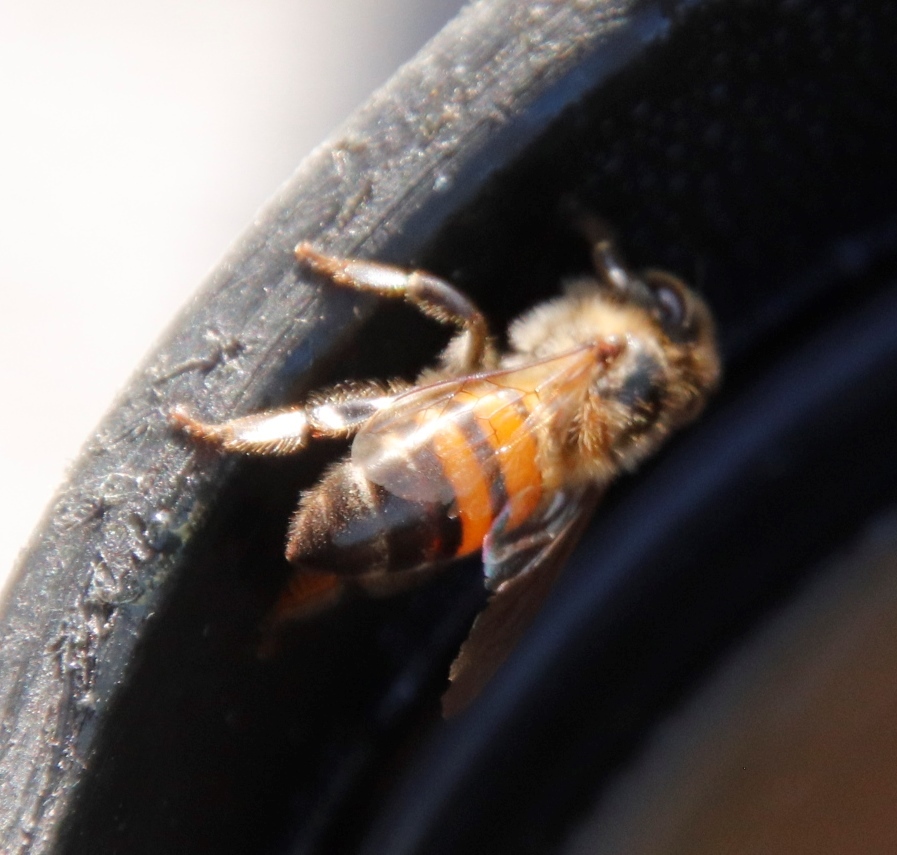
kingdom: Animalia
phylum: Arthropoda
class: Insecta
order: Hymenoptera
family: Apidae
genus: Apis
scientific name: Apis mellifera
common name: Honey bee
